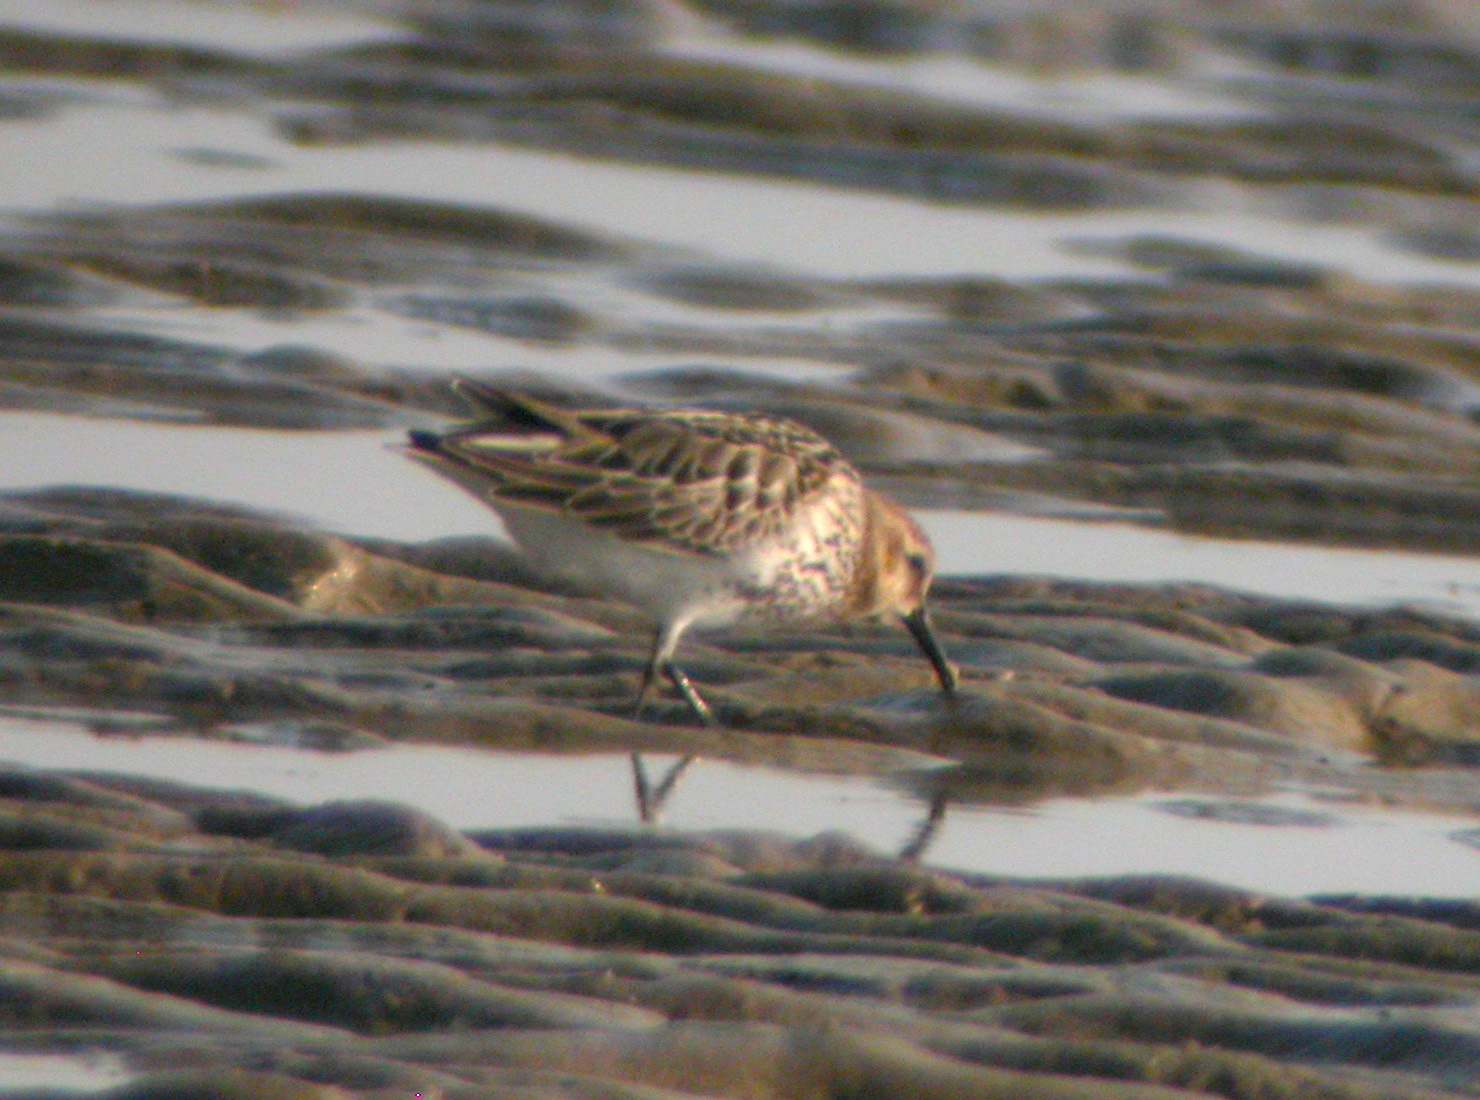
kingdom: Animalia
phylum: Chordata
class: Aves
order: Charadriiformes
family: Scolopacidae
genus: Calidris
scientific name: Calidris alpina
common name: Dunlin
